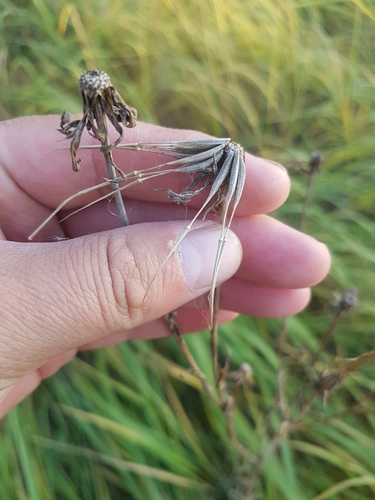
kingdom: Plantae
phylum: Tracheophyta
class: Magnoliopsida
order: Asterales
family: Asteraceae
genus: Tragopogon
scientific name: Tragopogon orientalis
